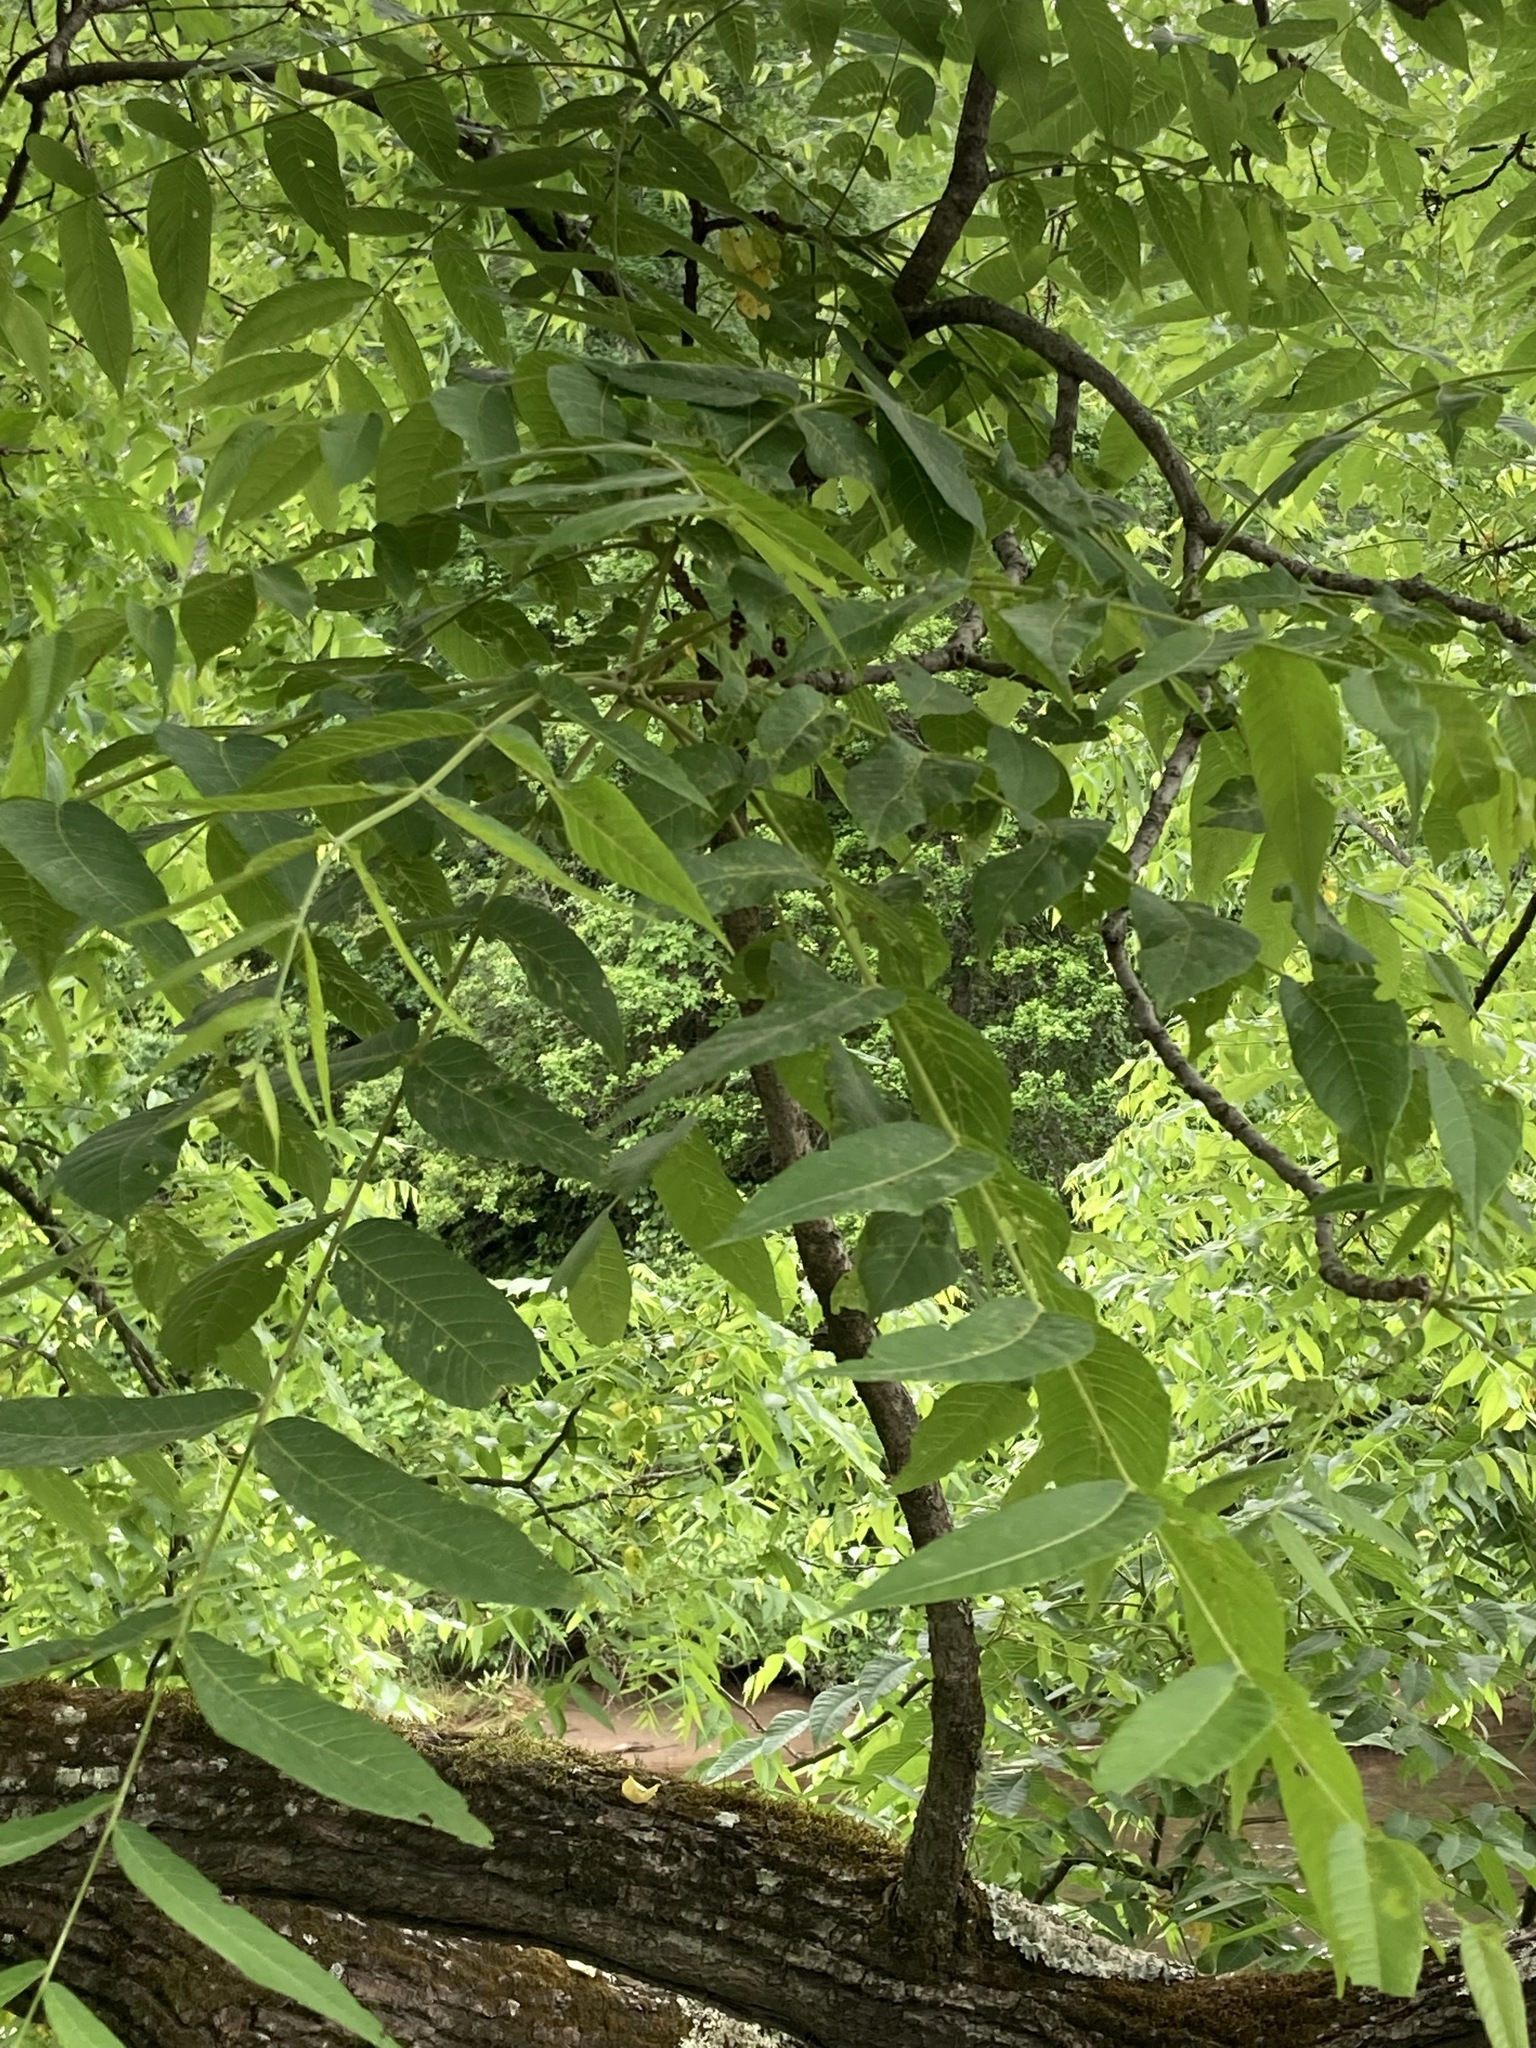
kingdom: Plantae
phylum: Tracheophyta
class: Magnoliopsida
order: Fagales
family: Juglandaceae
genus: Juglans
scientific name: Juglans nigra
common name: Black walnut
